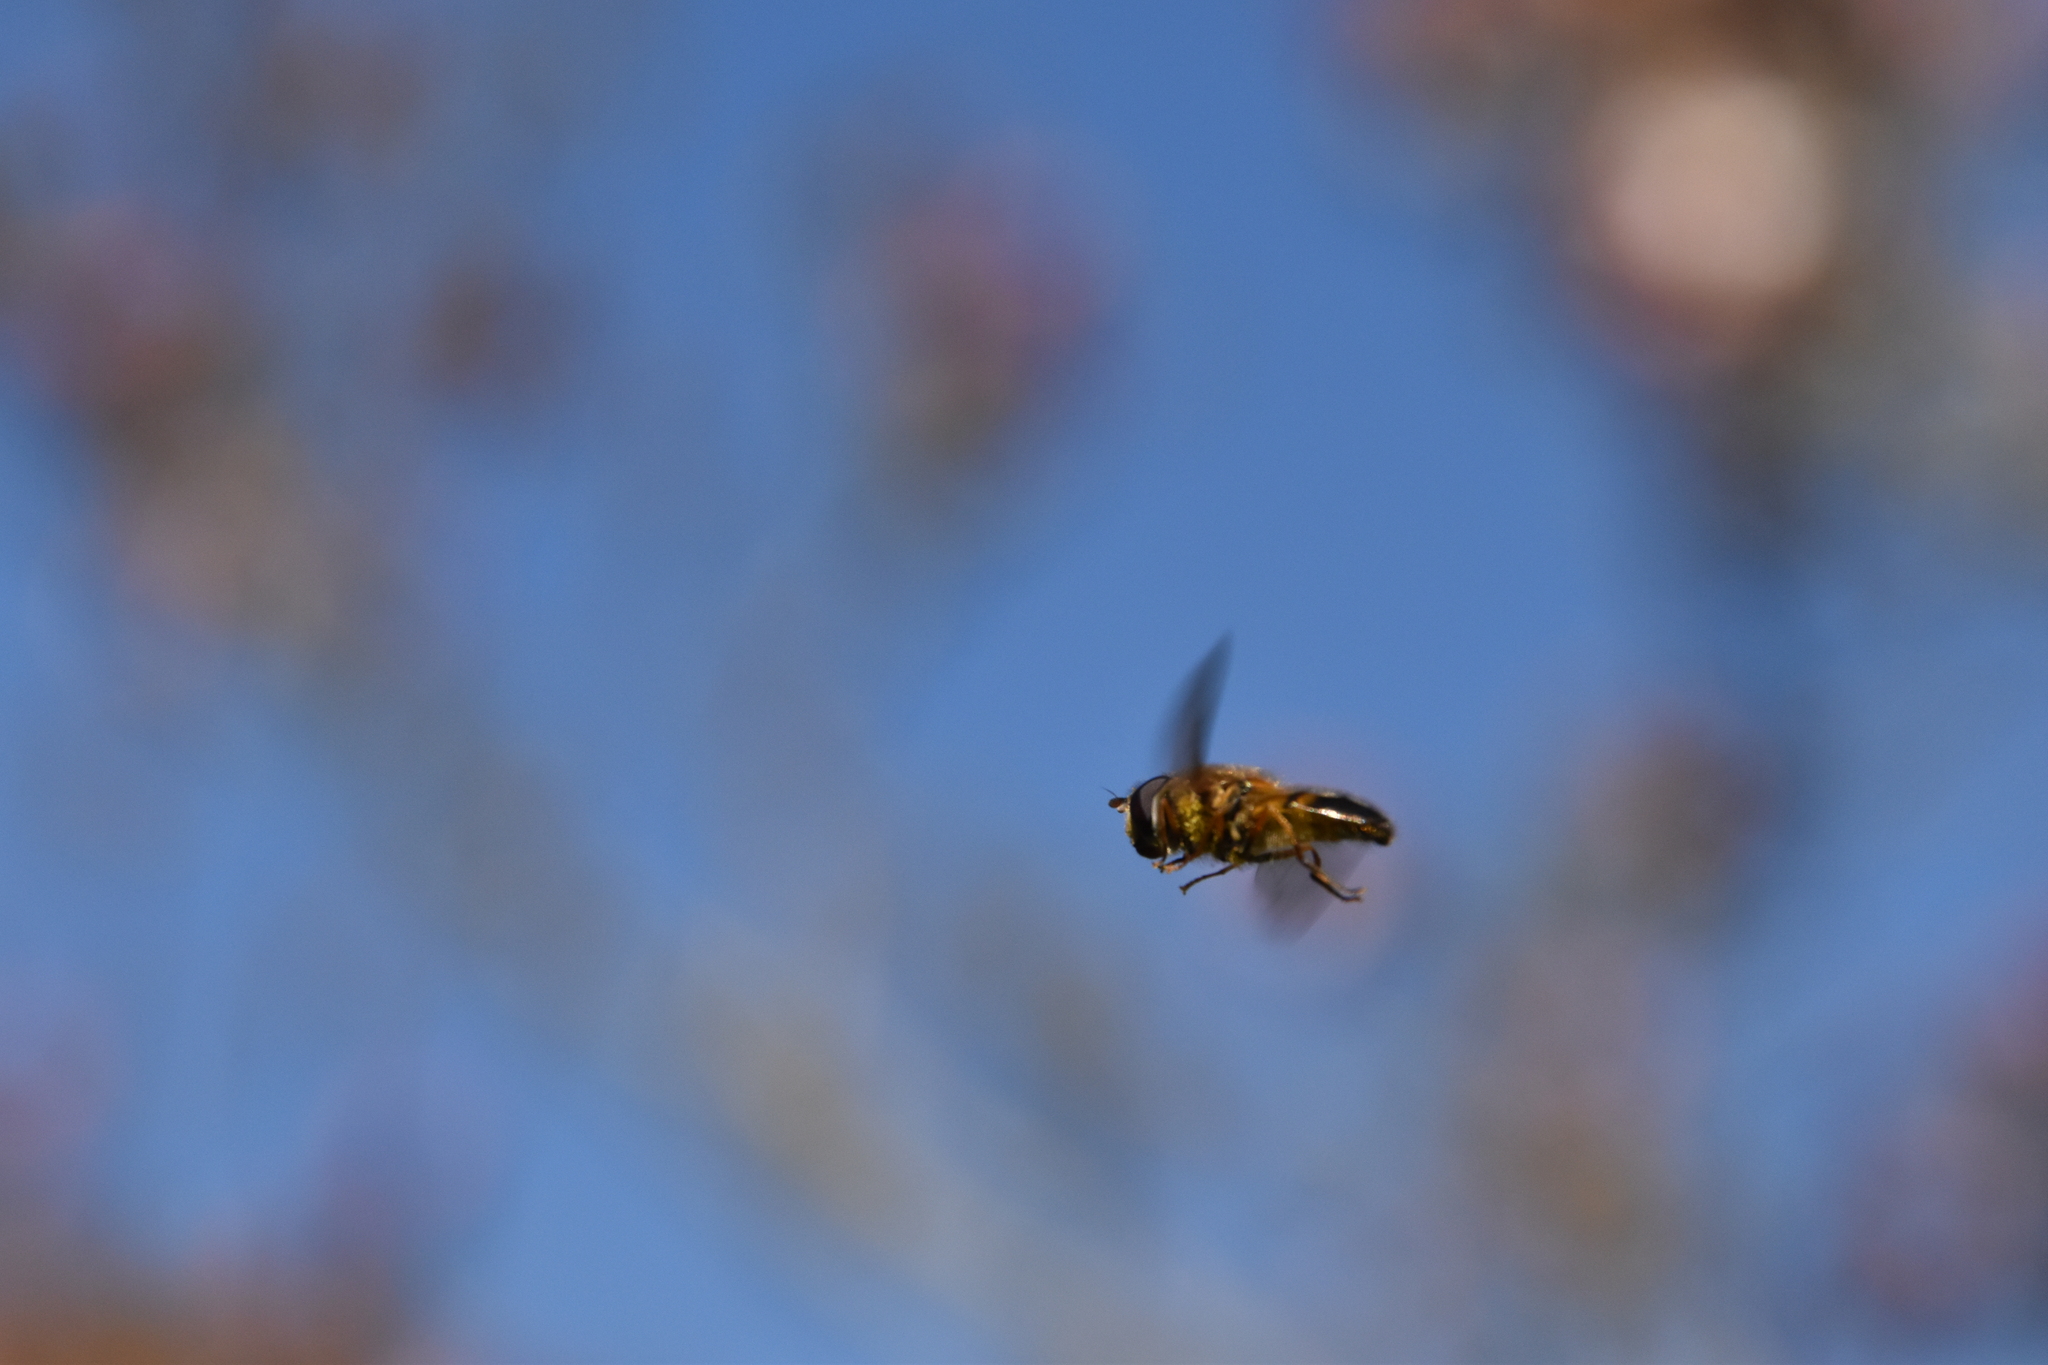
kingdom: Animalia
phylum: Arthropoda
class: Insecta
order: Diptera
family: Syrphidae
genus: Epistrophe
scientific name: Epistrophe eligans
